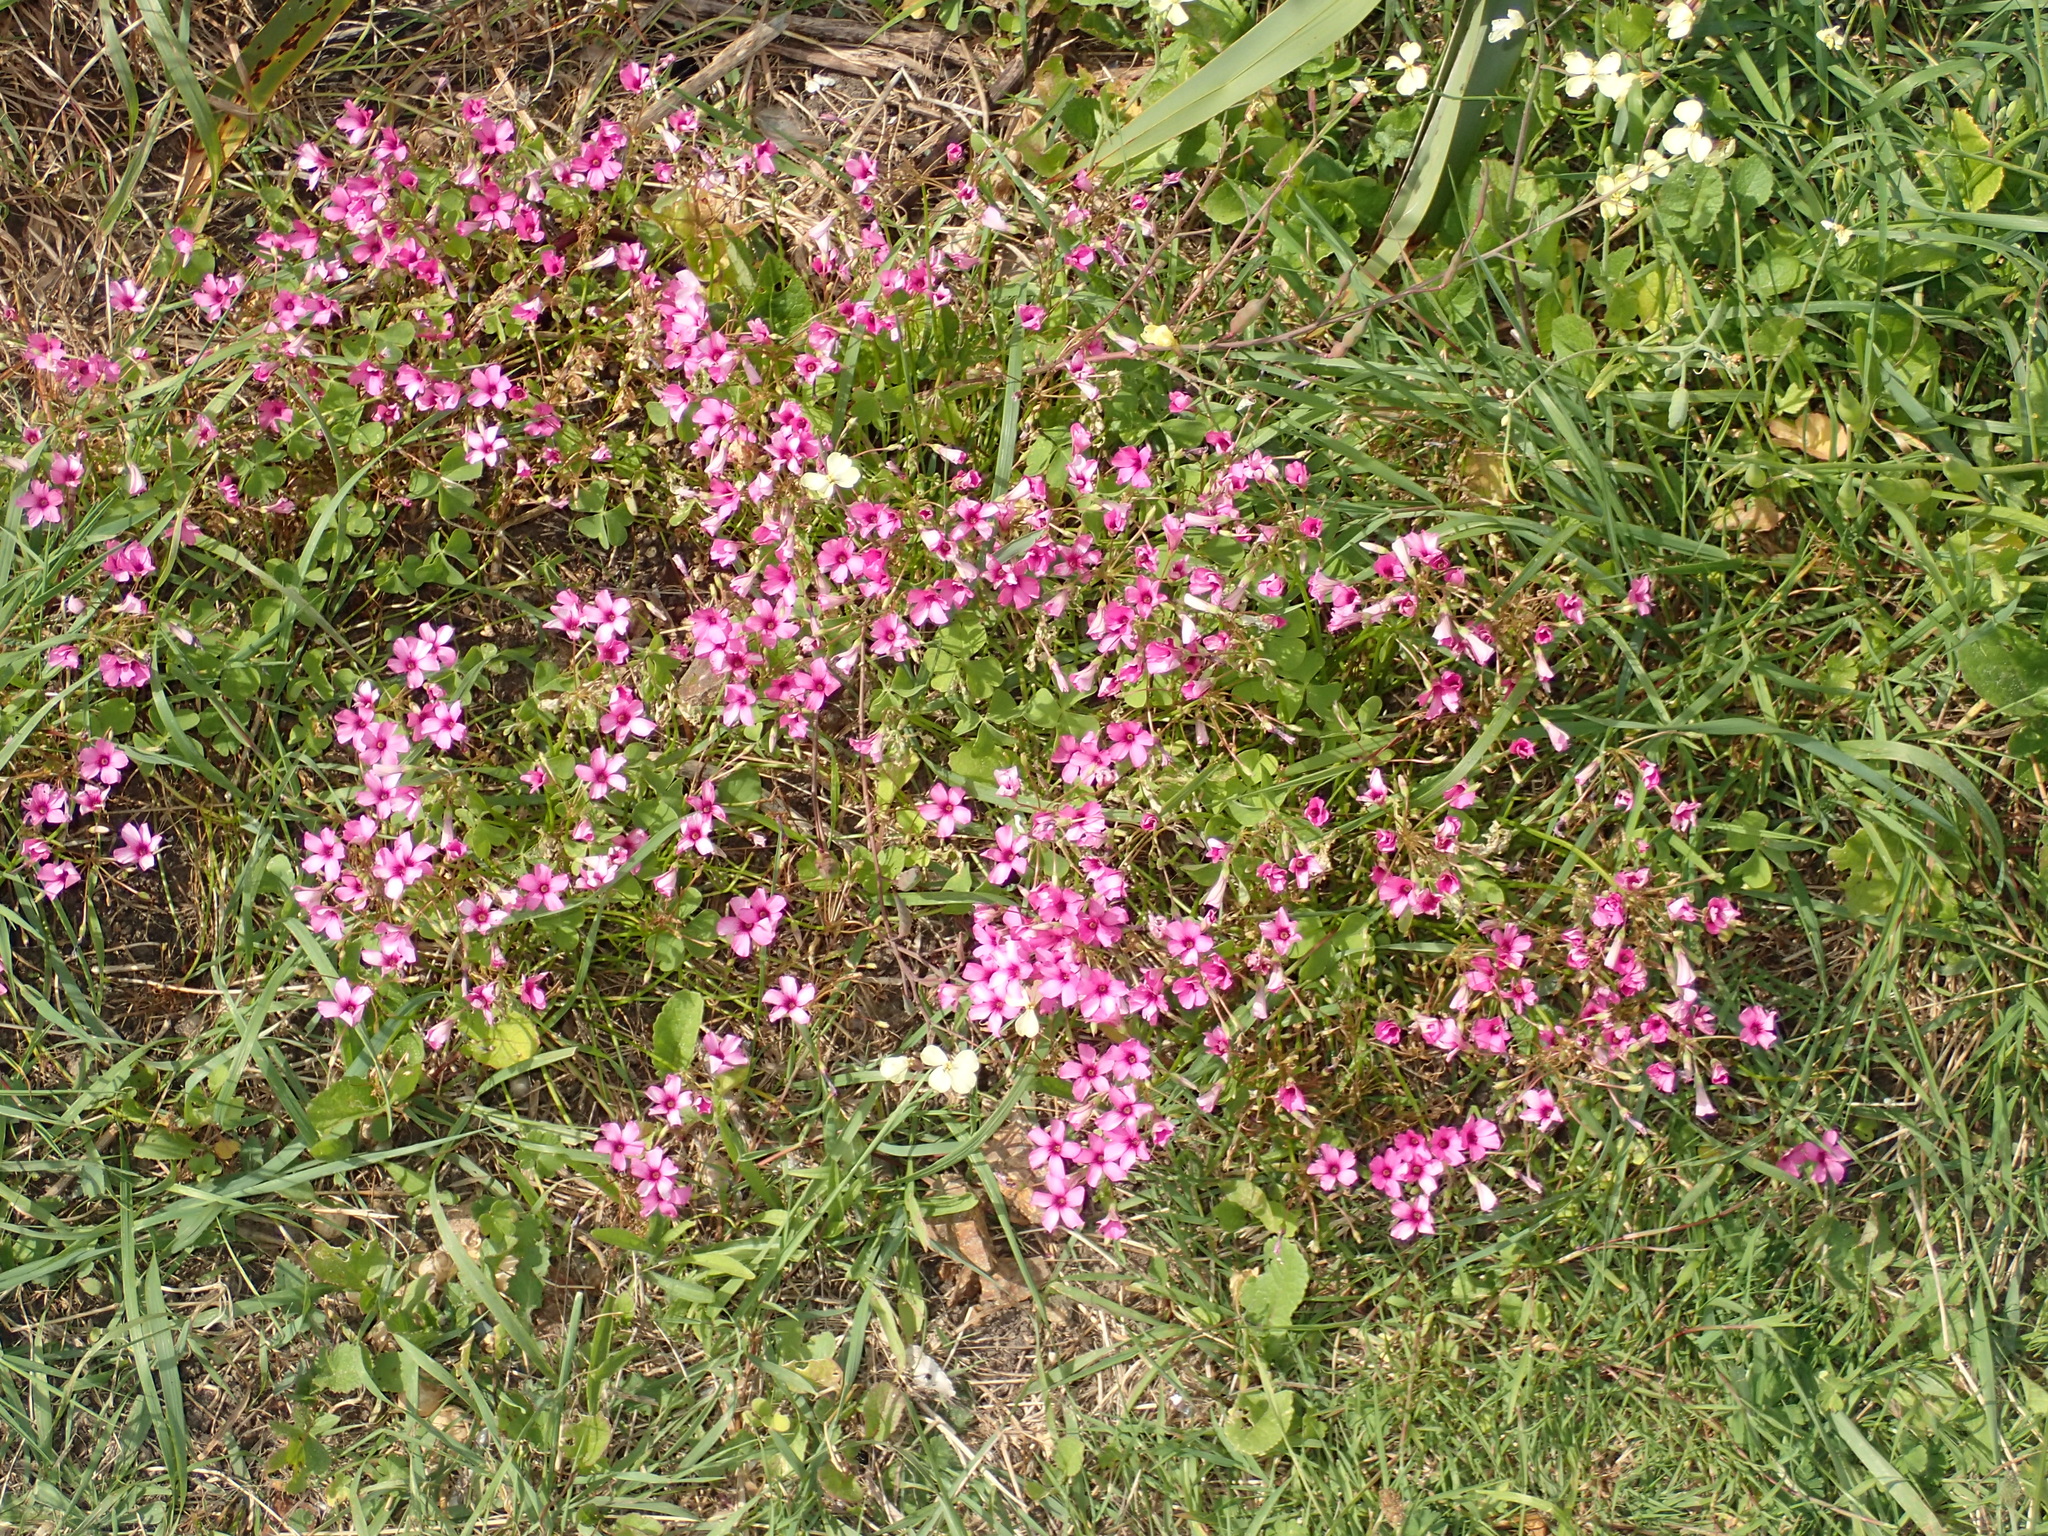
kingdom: Plantae
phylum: Tracheophyta
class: Magnoliopsida
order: Oxalidales
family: Oxalidaceae
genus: Oxalis
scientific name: Oxalis articulata
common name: Pink-sorrel
